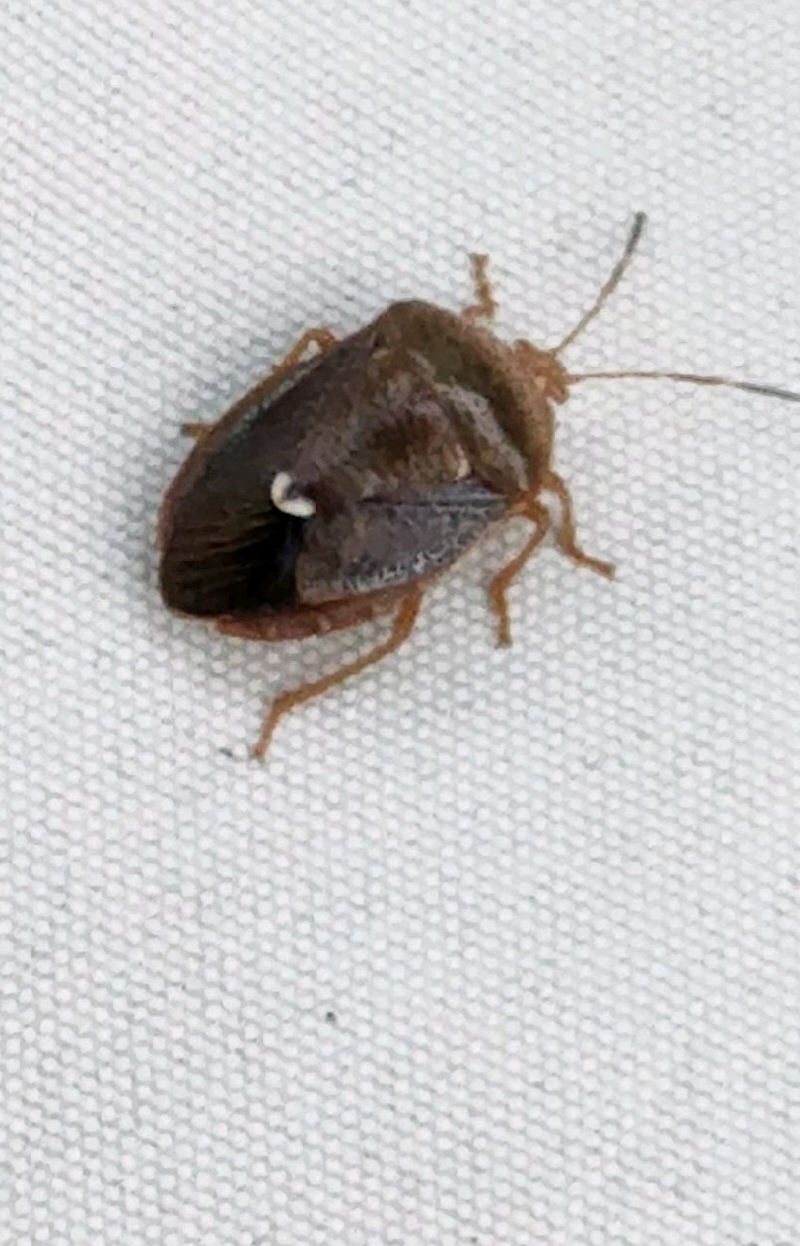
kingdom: Animalia
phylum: Arthropoda
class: Insecta
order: Hemiptera
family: Pentatomidae
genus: Edessa
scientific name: Edessa bifida
